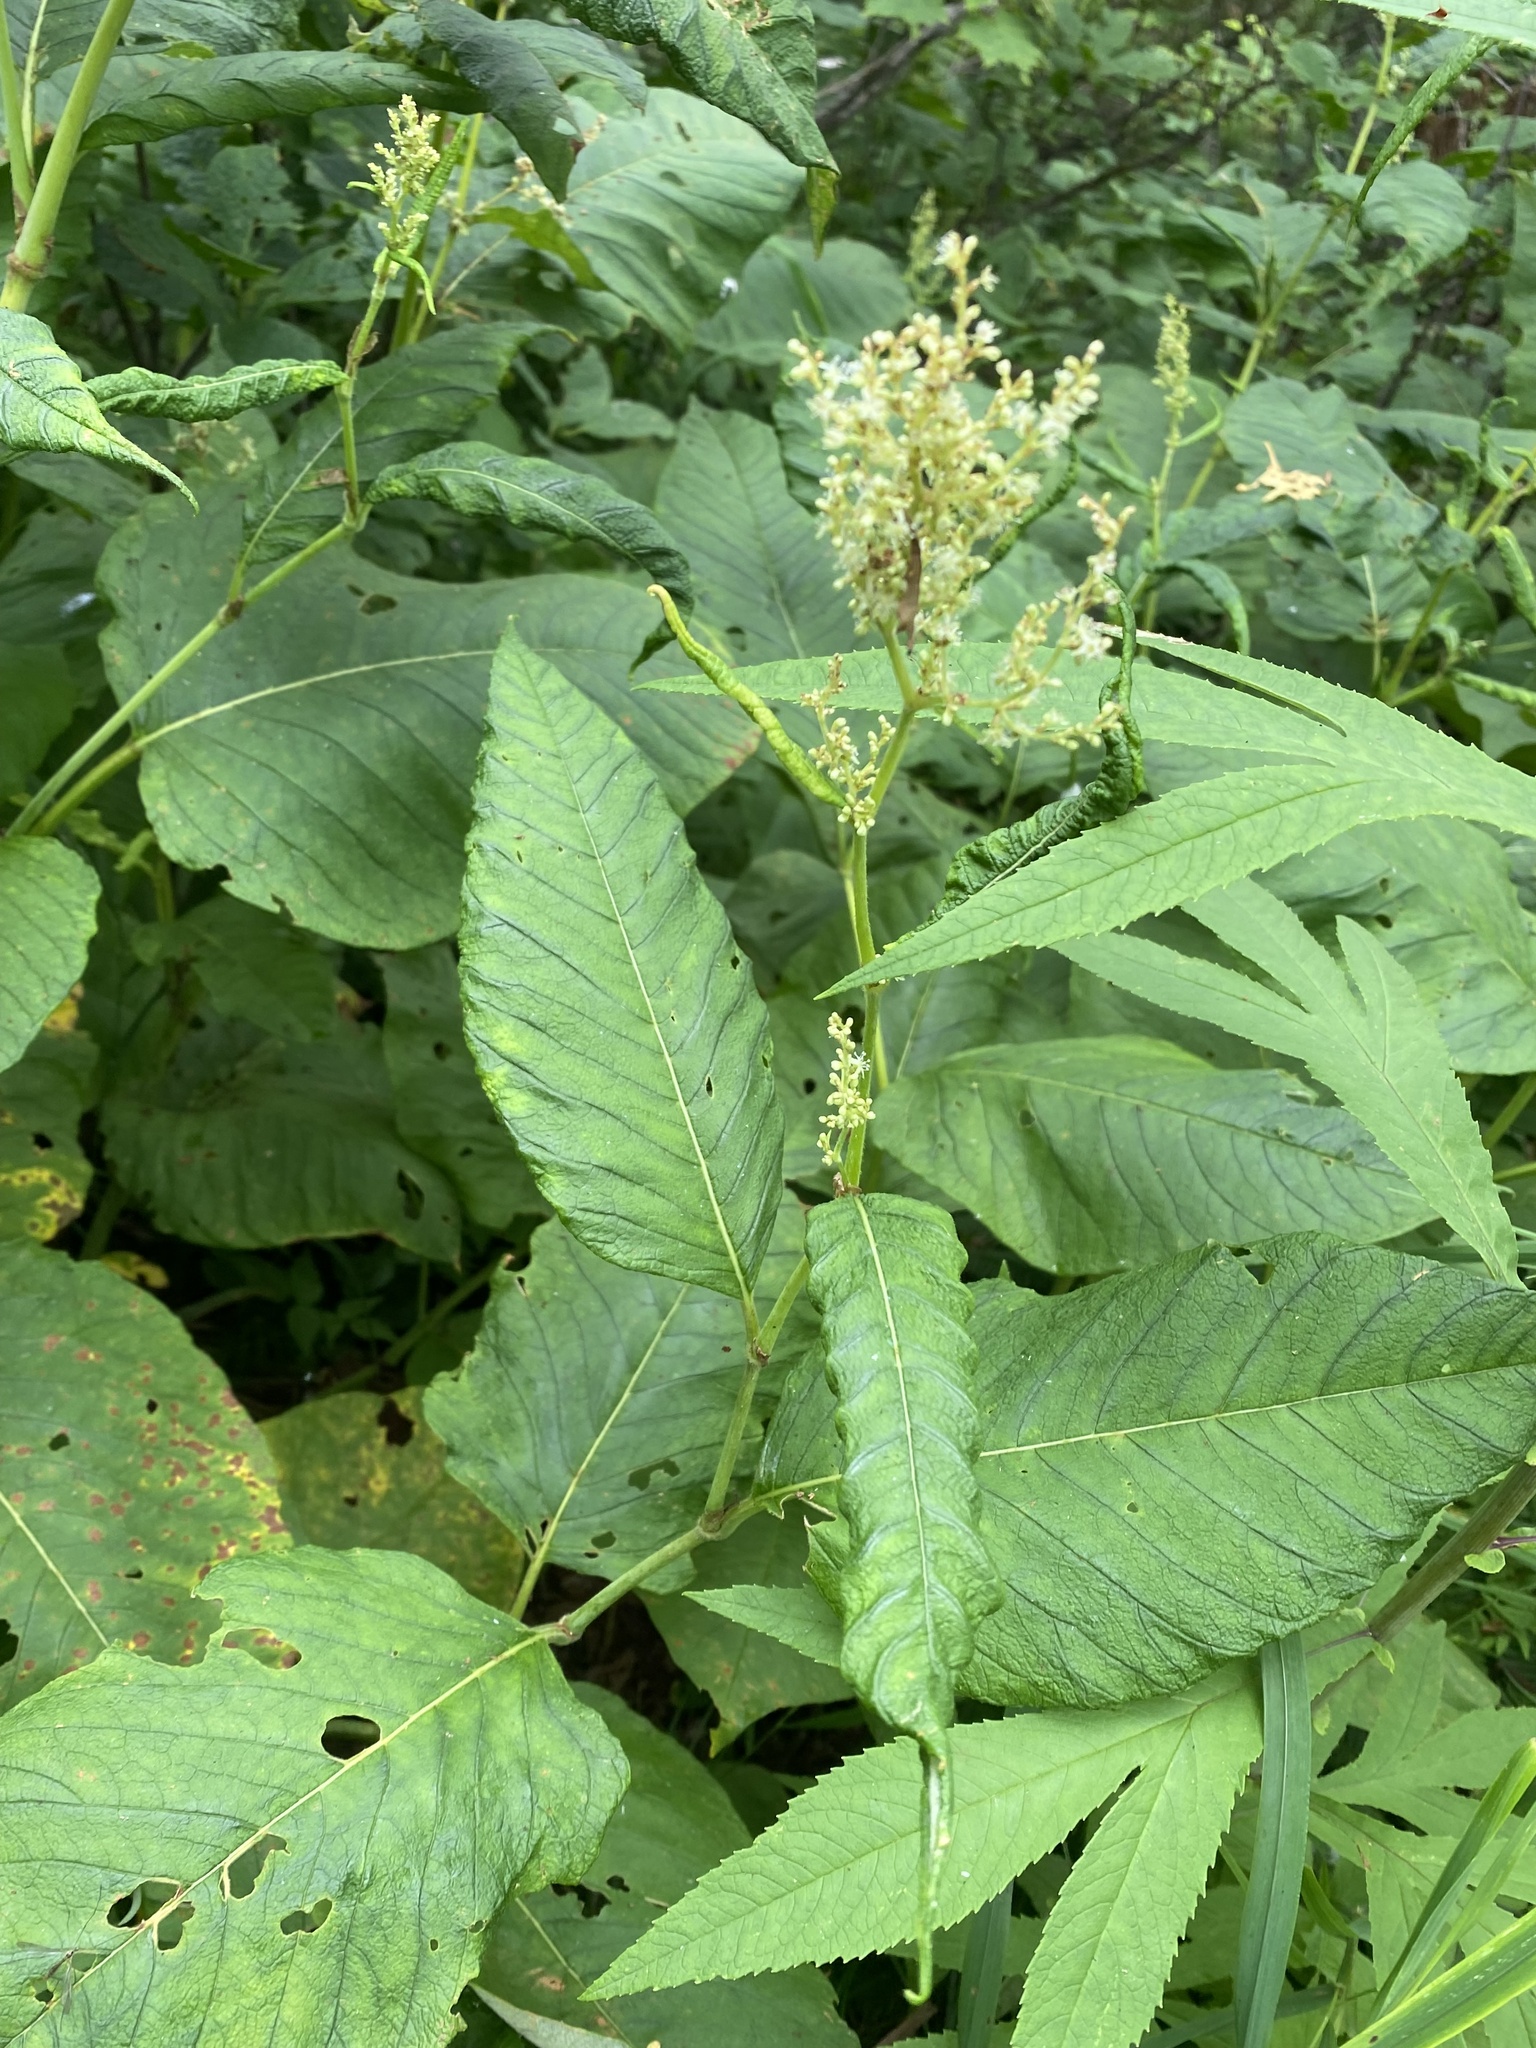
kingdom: Plantae
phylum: Tracheophyta
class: Magnoliopsida
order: Caryophyllales
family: Polygonaceae
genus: Koenigia
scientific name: Koenigia weyrichii
